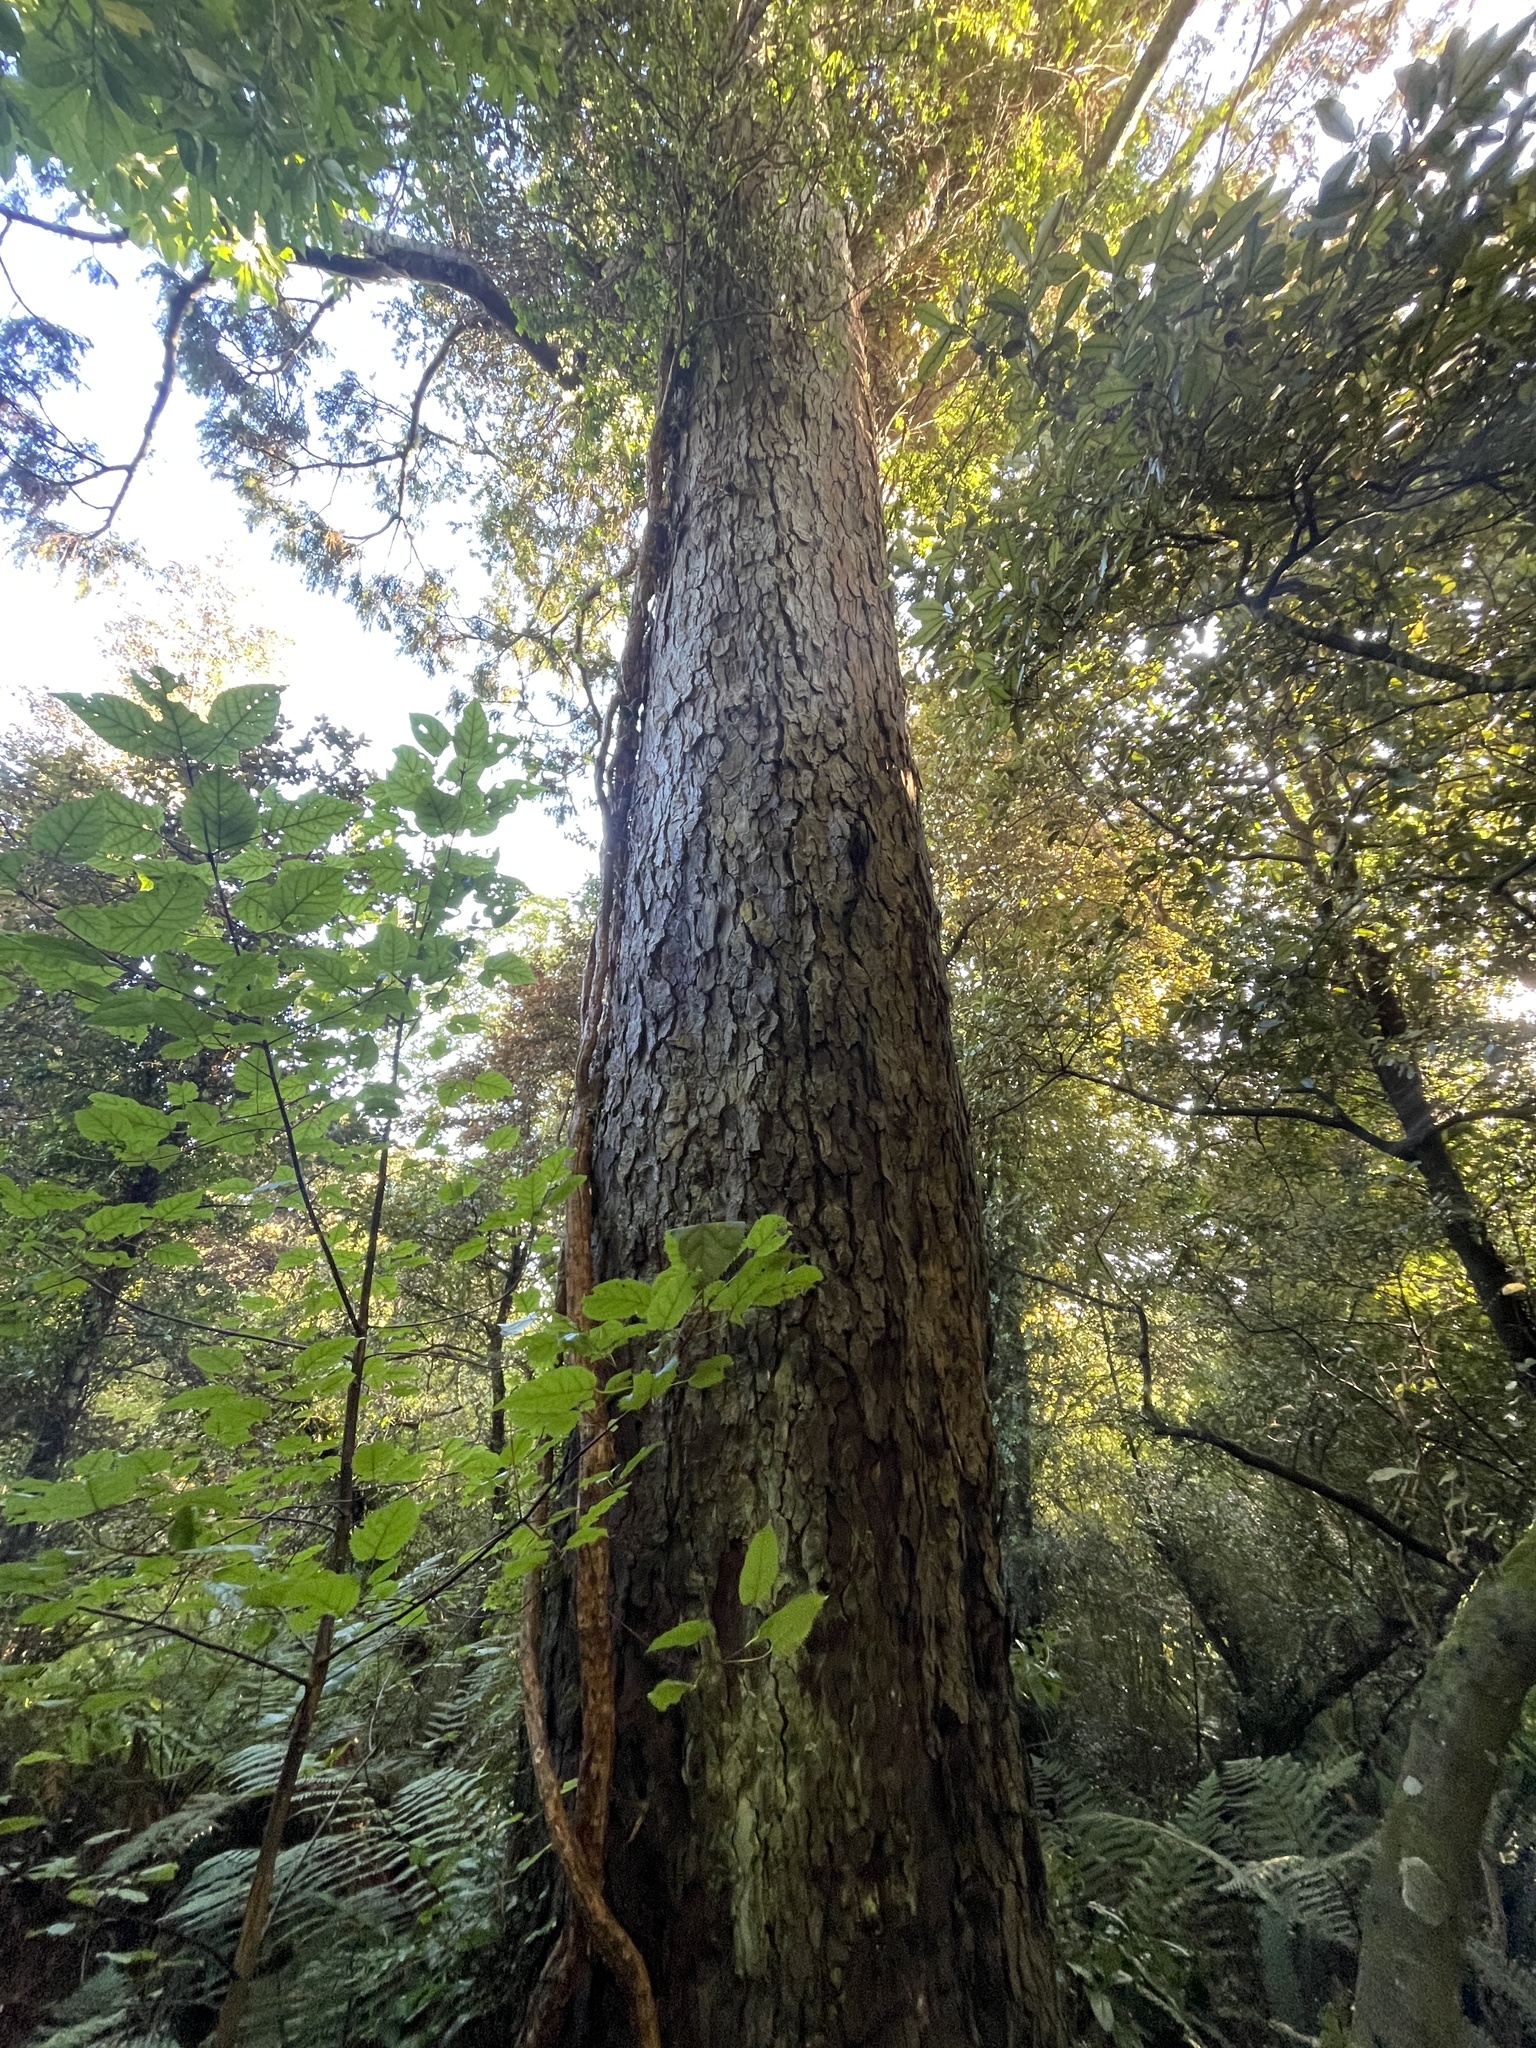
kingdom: Plantae
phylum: Tracheophyta
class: Pinopsida
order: Pinales
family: Podocarpaceae
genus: Dacrydium
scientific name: Dacrydium cupressinum
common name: Red pine
